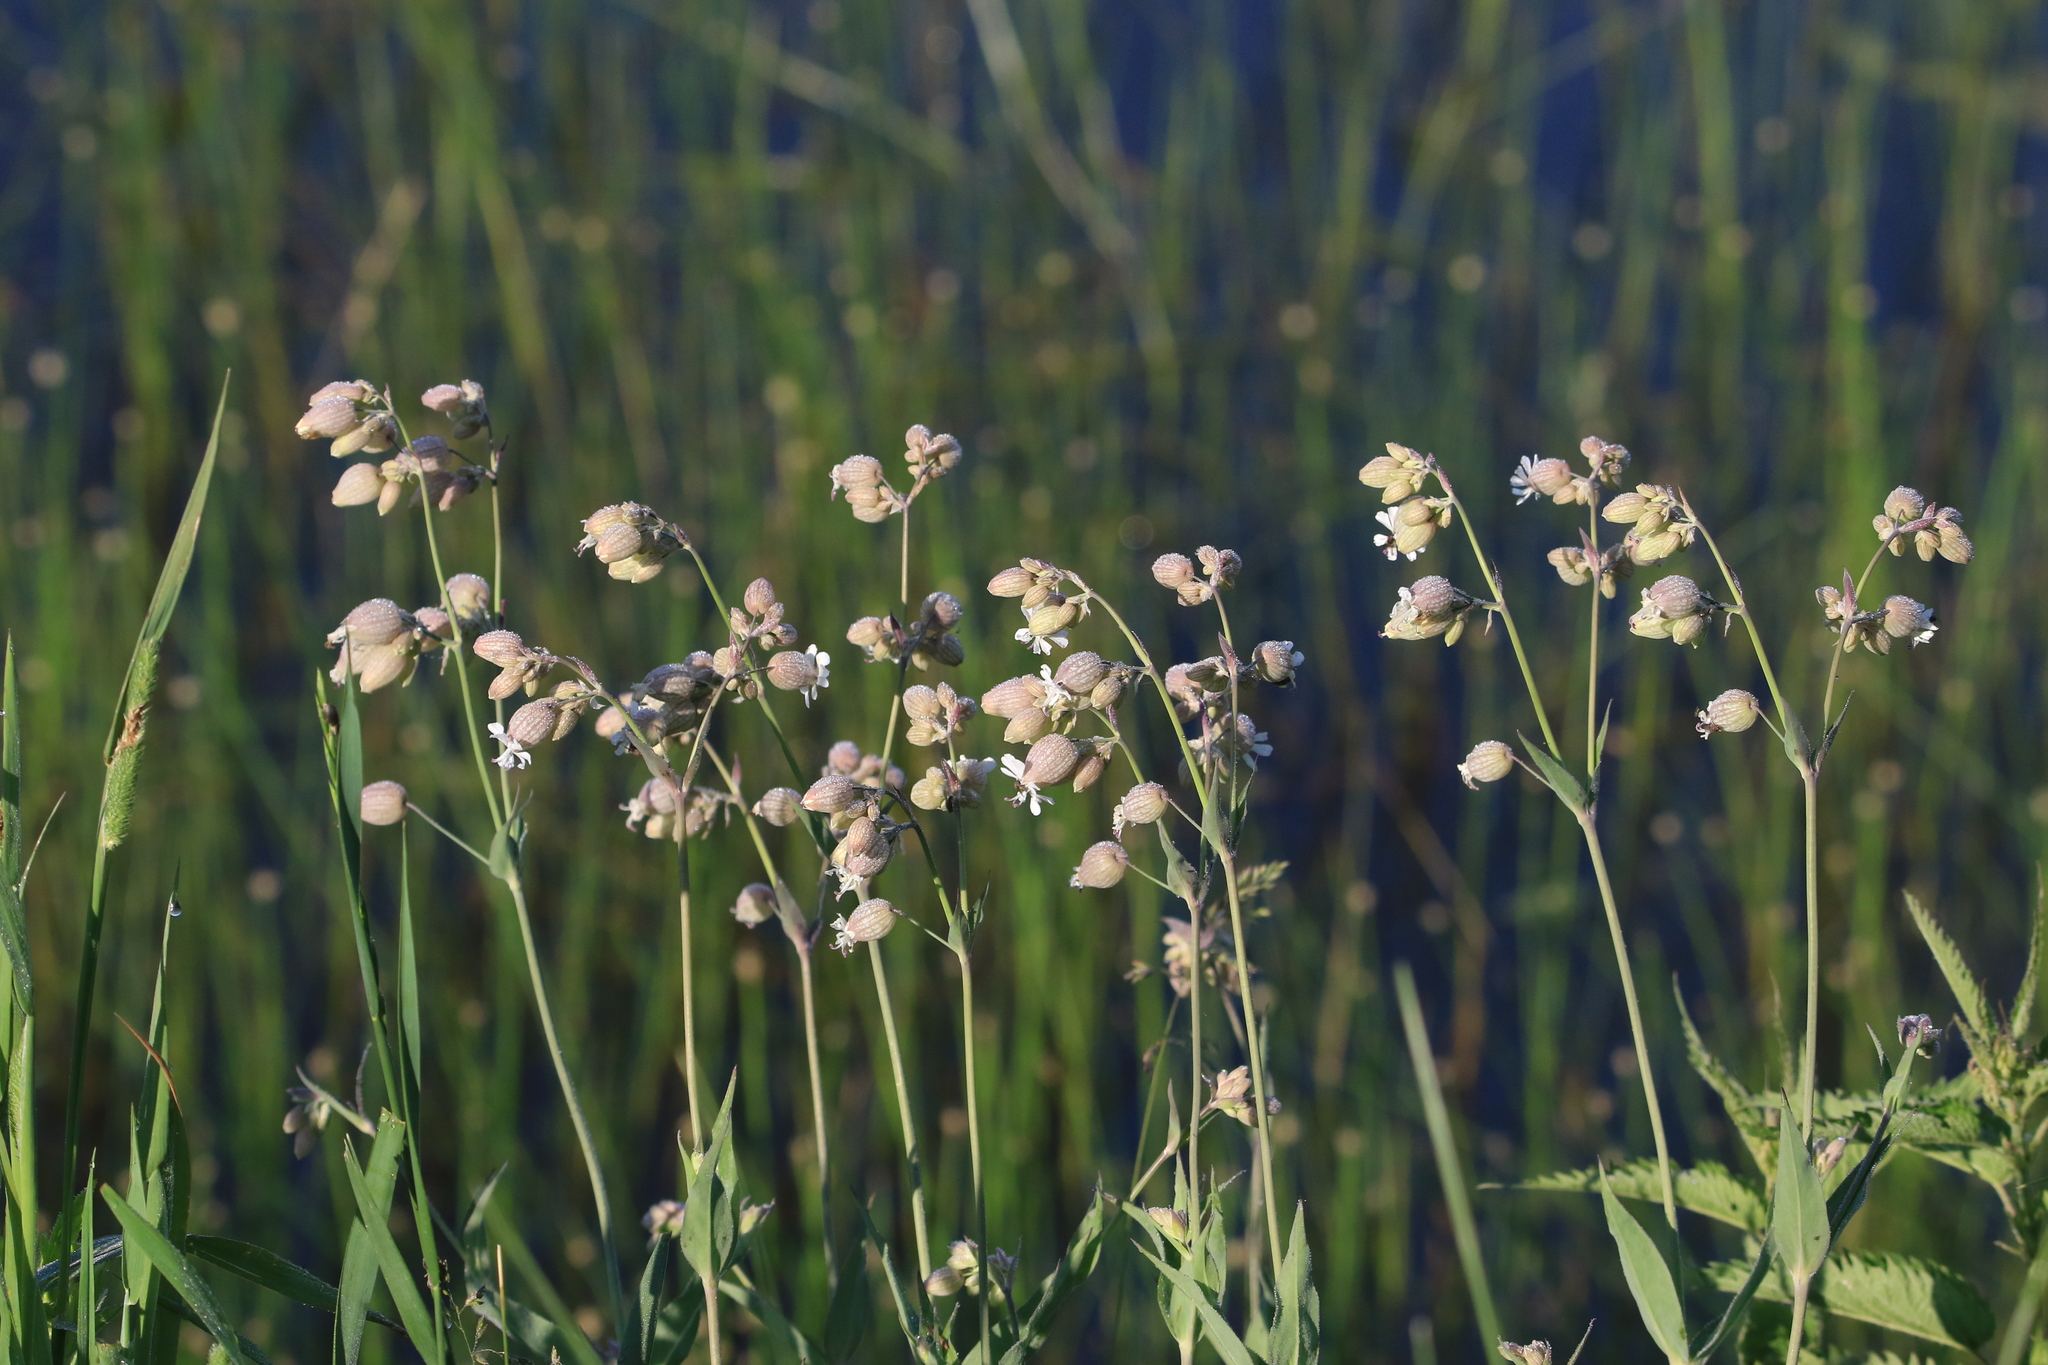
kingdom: Plantae
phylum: Tracheophyta
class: Magnoliopsida
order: Caryophyllales
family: Caryophyllaceae
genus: Silene
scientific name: Silene vulgaris
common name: Bladder campion
